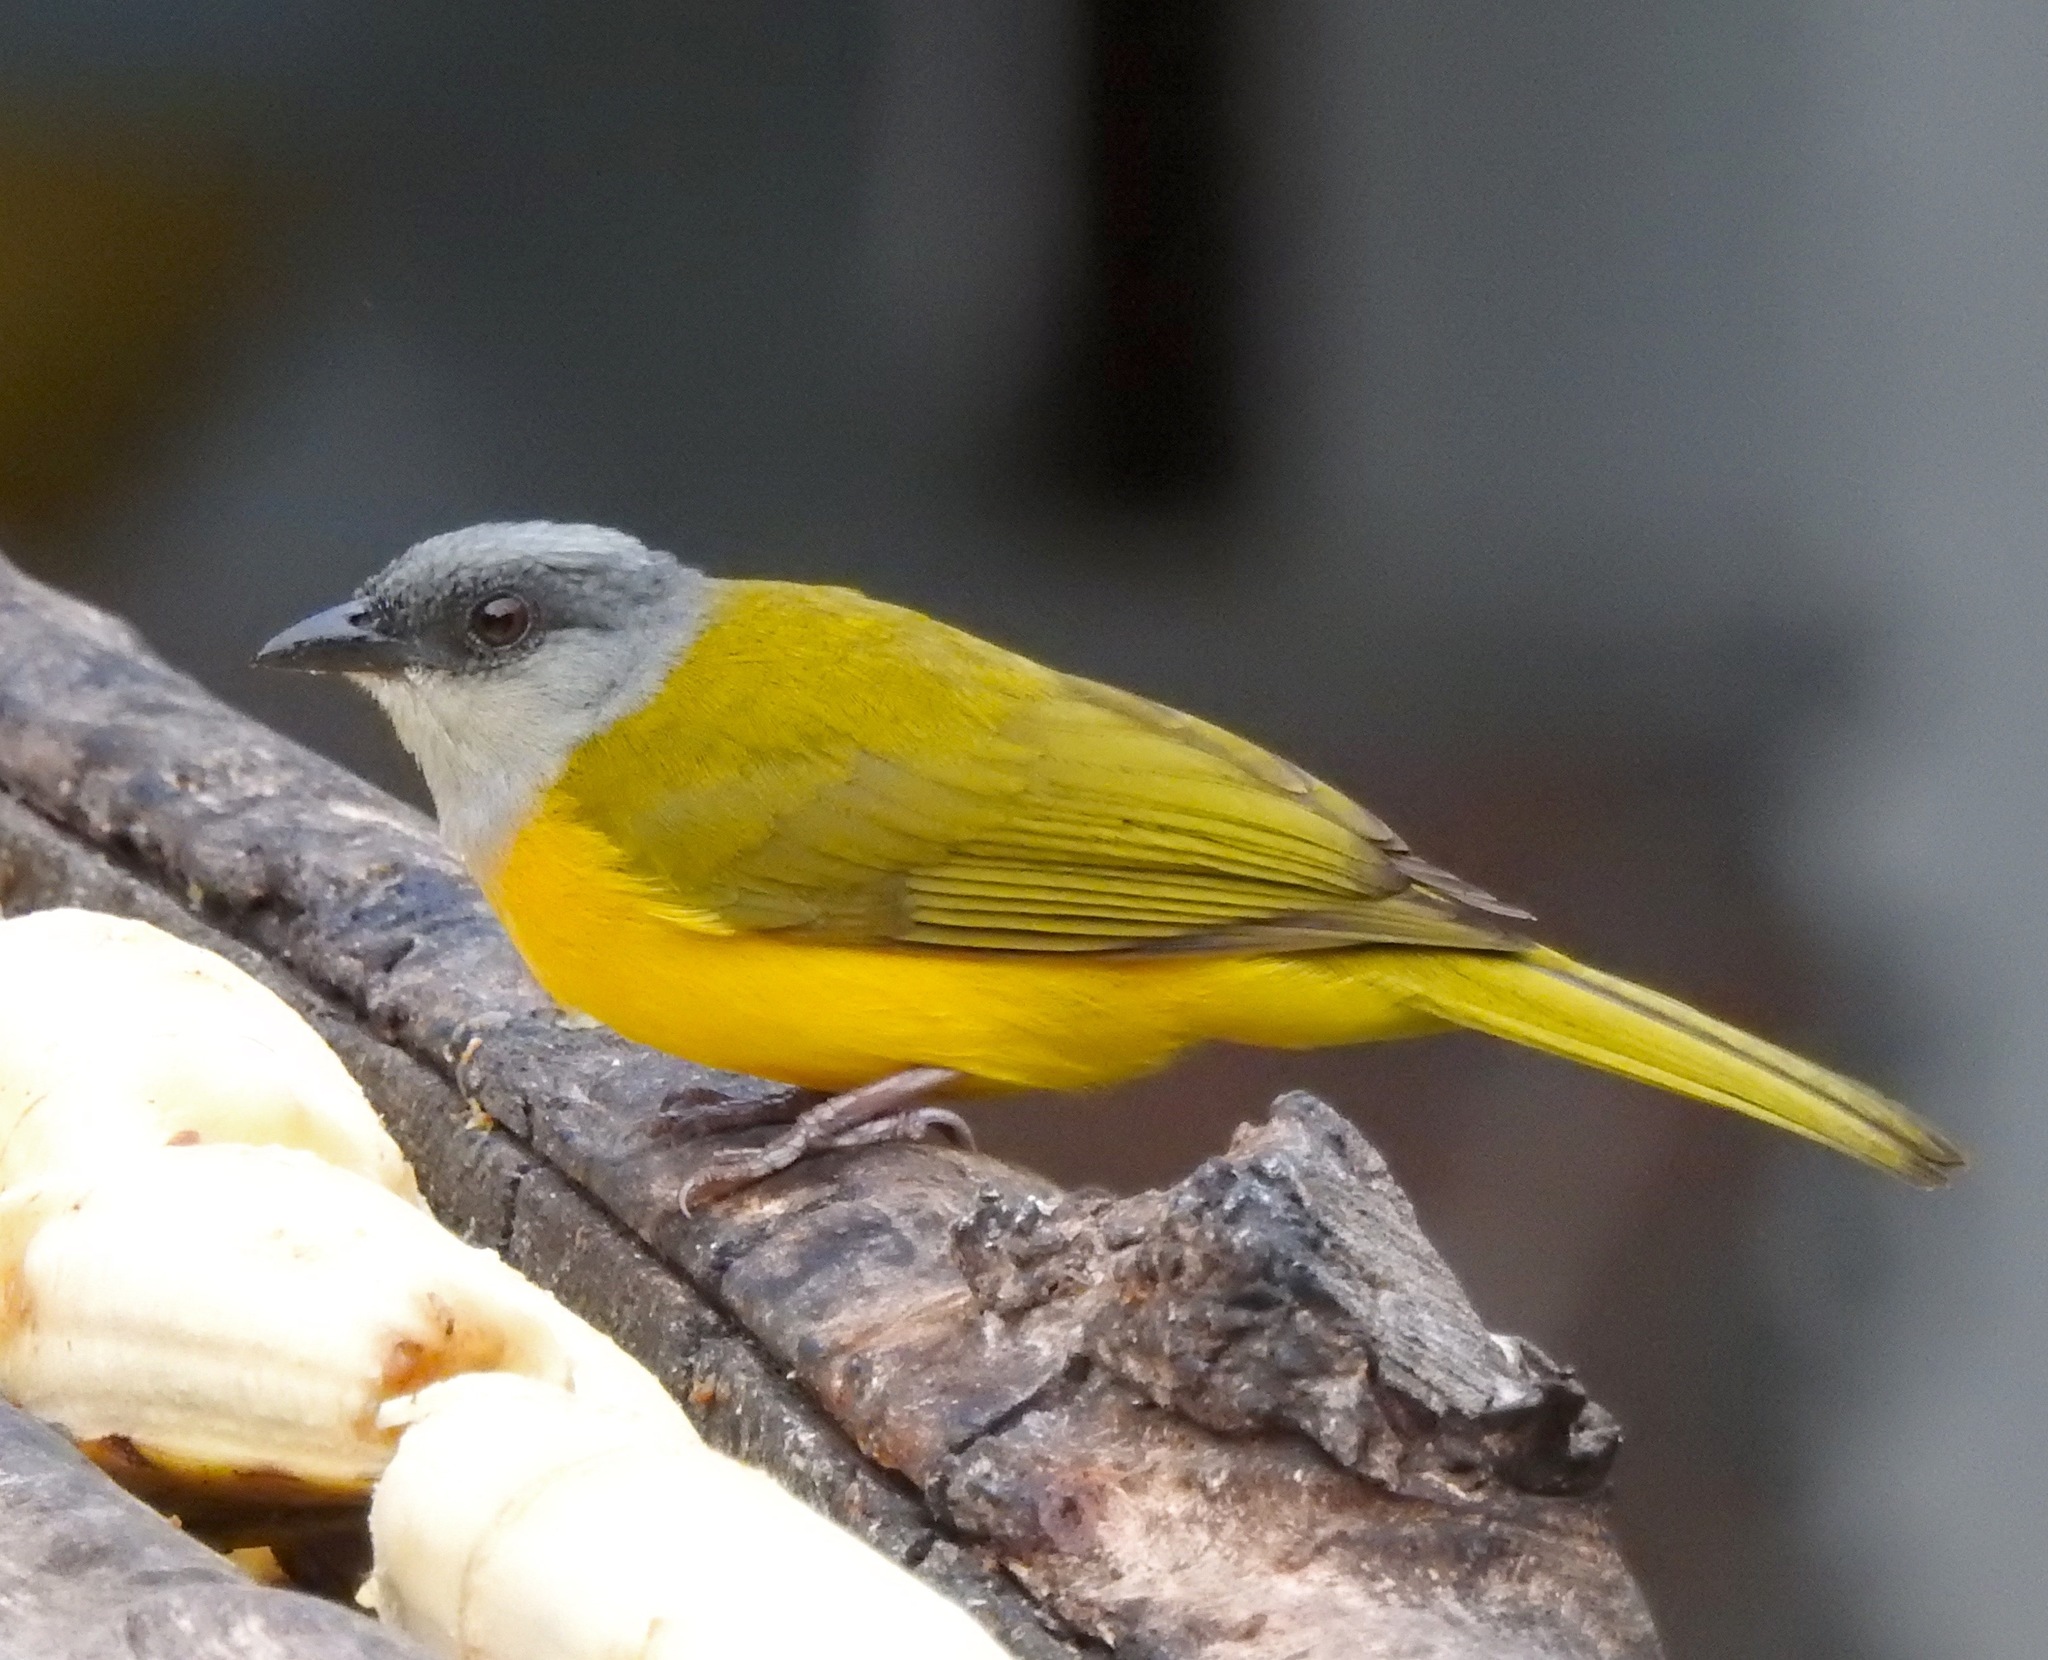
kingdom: Animalia
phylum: Chordata
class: Aves
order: Passeriformes
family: Thraupidae
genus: Eucometis
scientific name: Eucometis penicillata
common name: Grey-headed tanager
